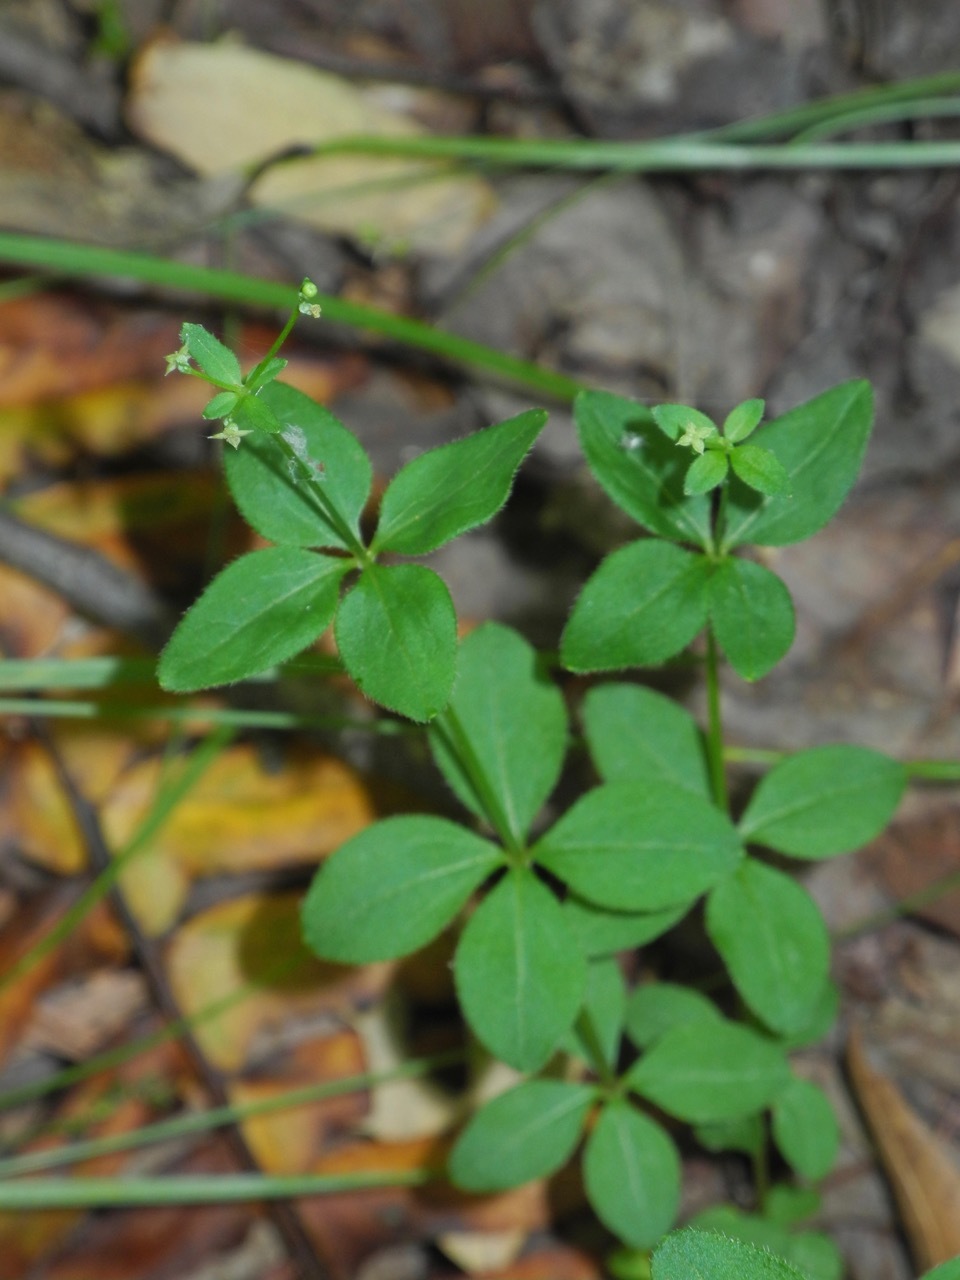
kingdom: Plantae
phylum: Tracheophyta
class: Magnoliopsida
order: Gentianales
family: Rubiaceae
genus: Galium
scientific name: Galium circaezans
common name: Forest bedstraw
